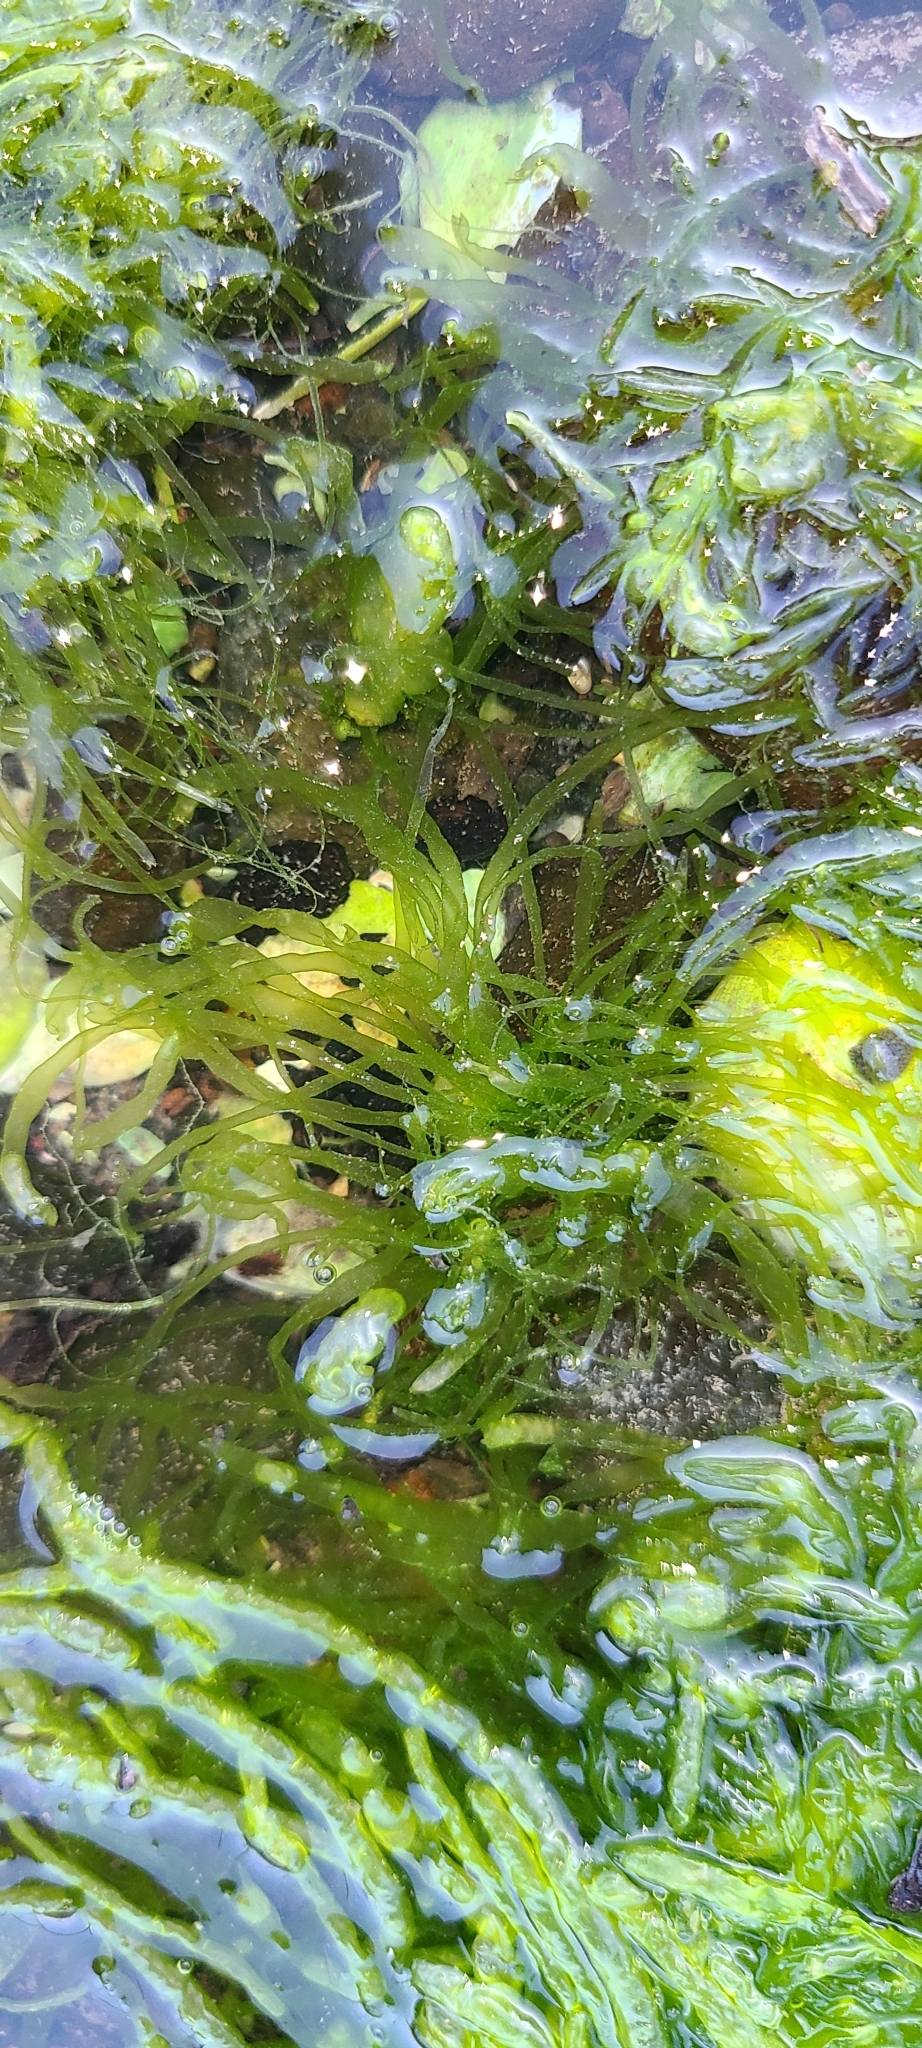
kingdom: Plantae
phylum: Chlorophyta
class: Ulvophyceae
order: Ulvales
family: Ulvaceae
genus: Ulva
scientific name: Ulva intestinalis
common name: Gut weed
